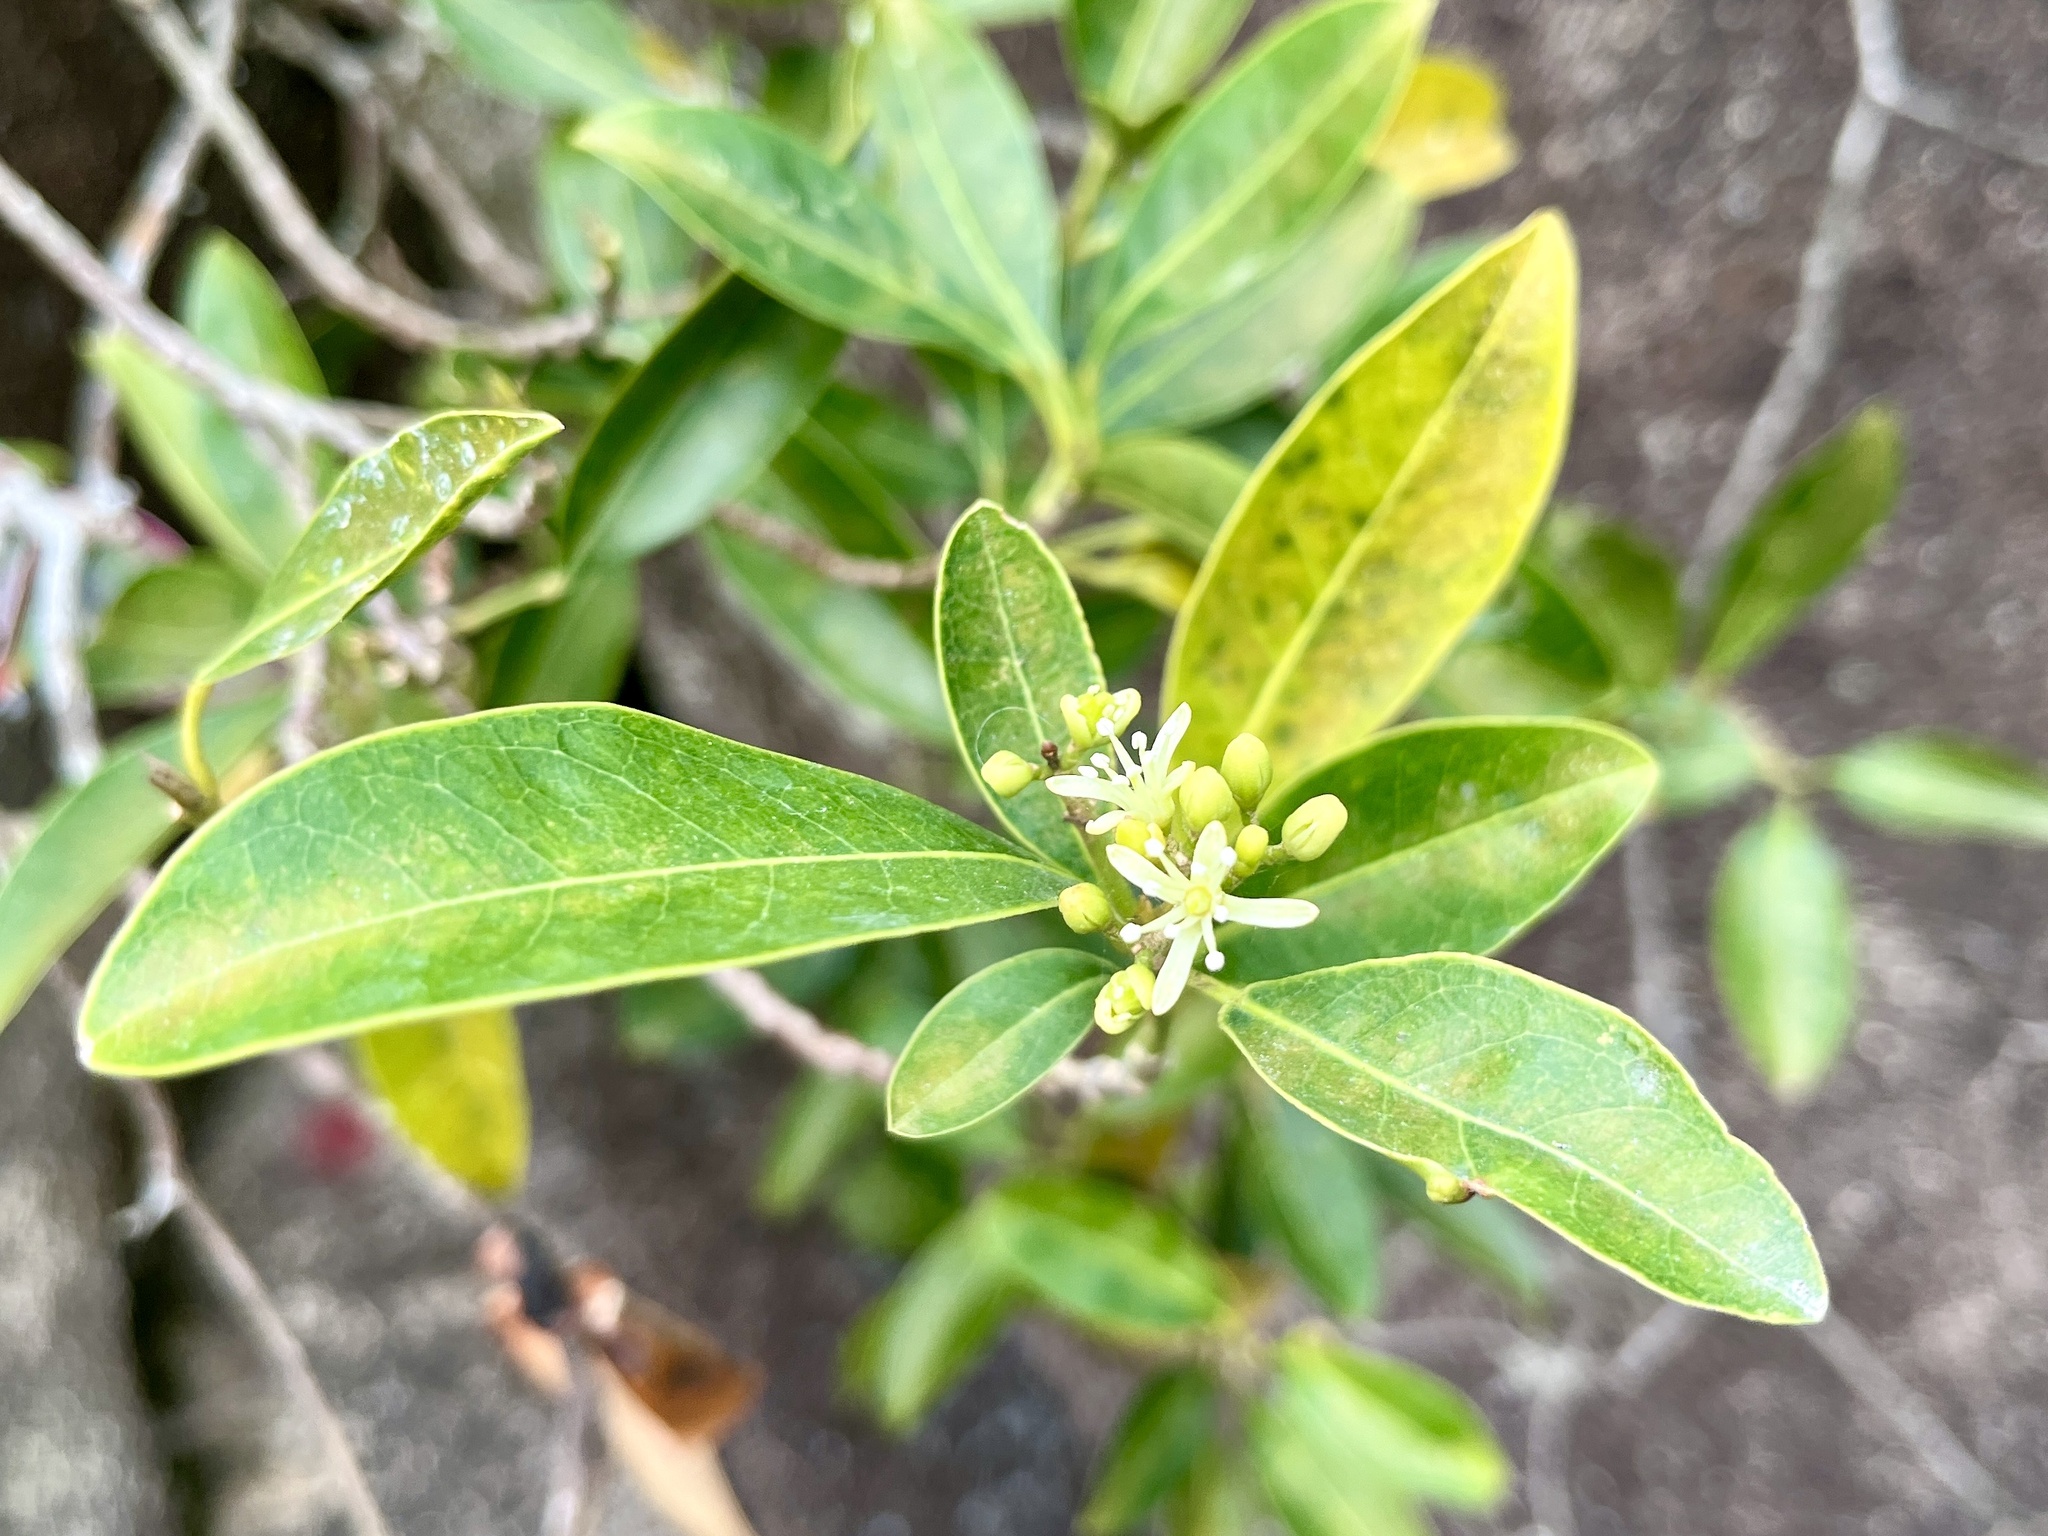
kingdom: Plantae
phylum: Tracheophyta
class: Magnoliopsida
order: Sapindales
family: Rutaceae
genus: Acronychia
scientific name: Acronychia pedunculata
